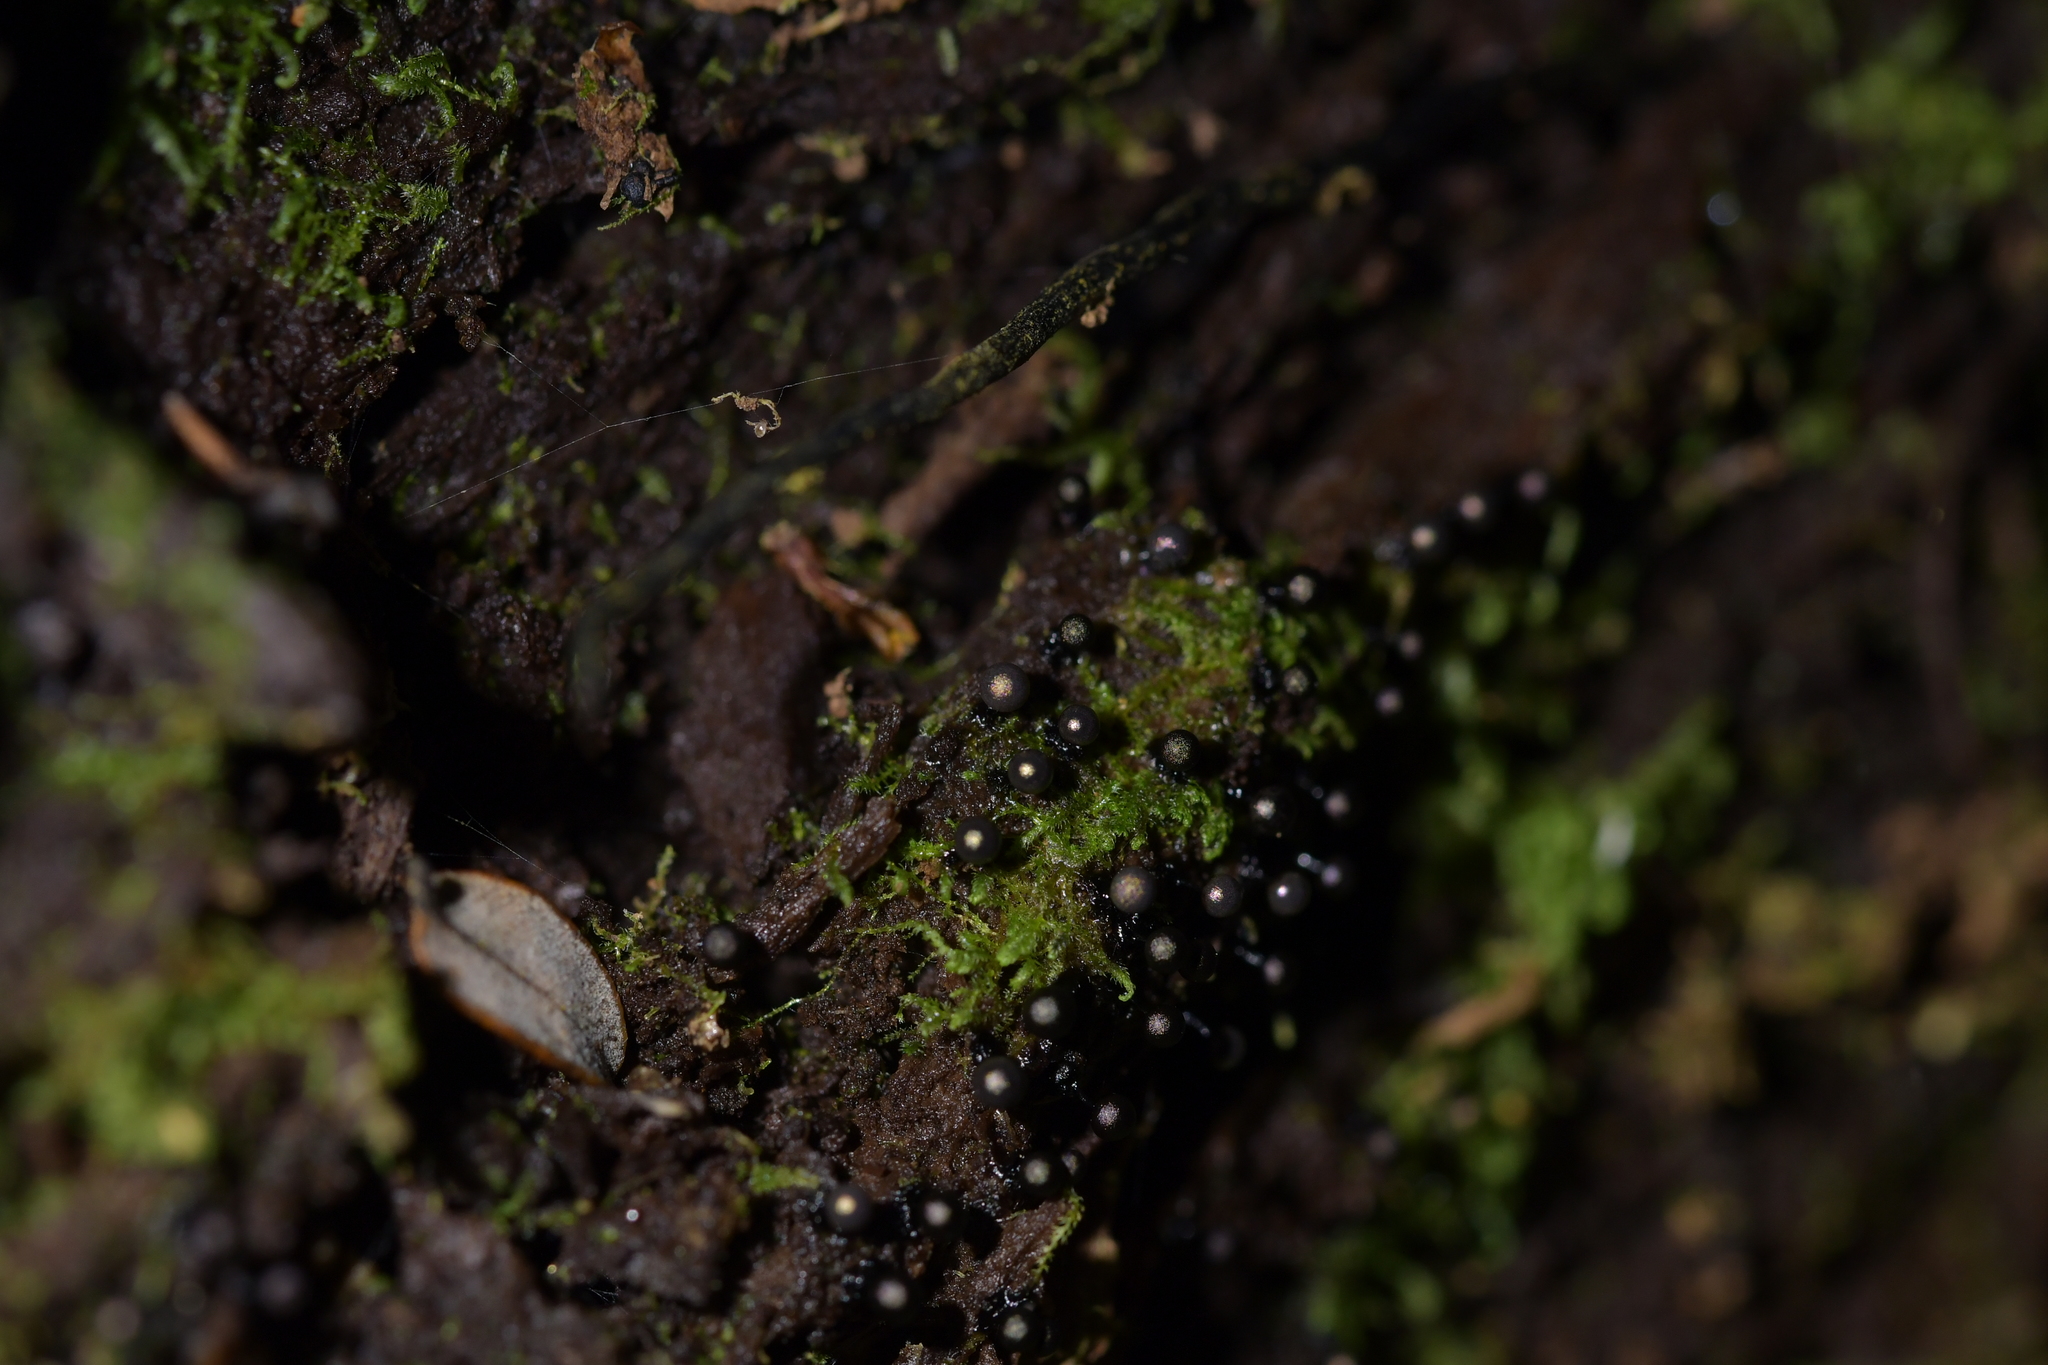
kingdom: Protozoa
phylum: Mycetozoa
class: Myxomycetes
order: Trichiales
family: Arcyriaceae
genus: Hemitrichia
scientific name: Hemitrichia decipiens
